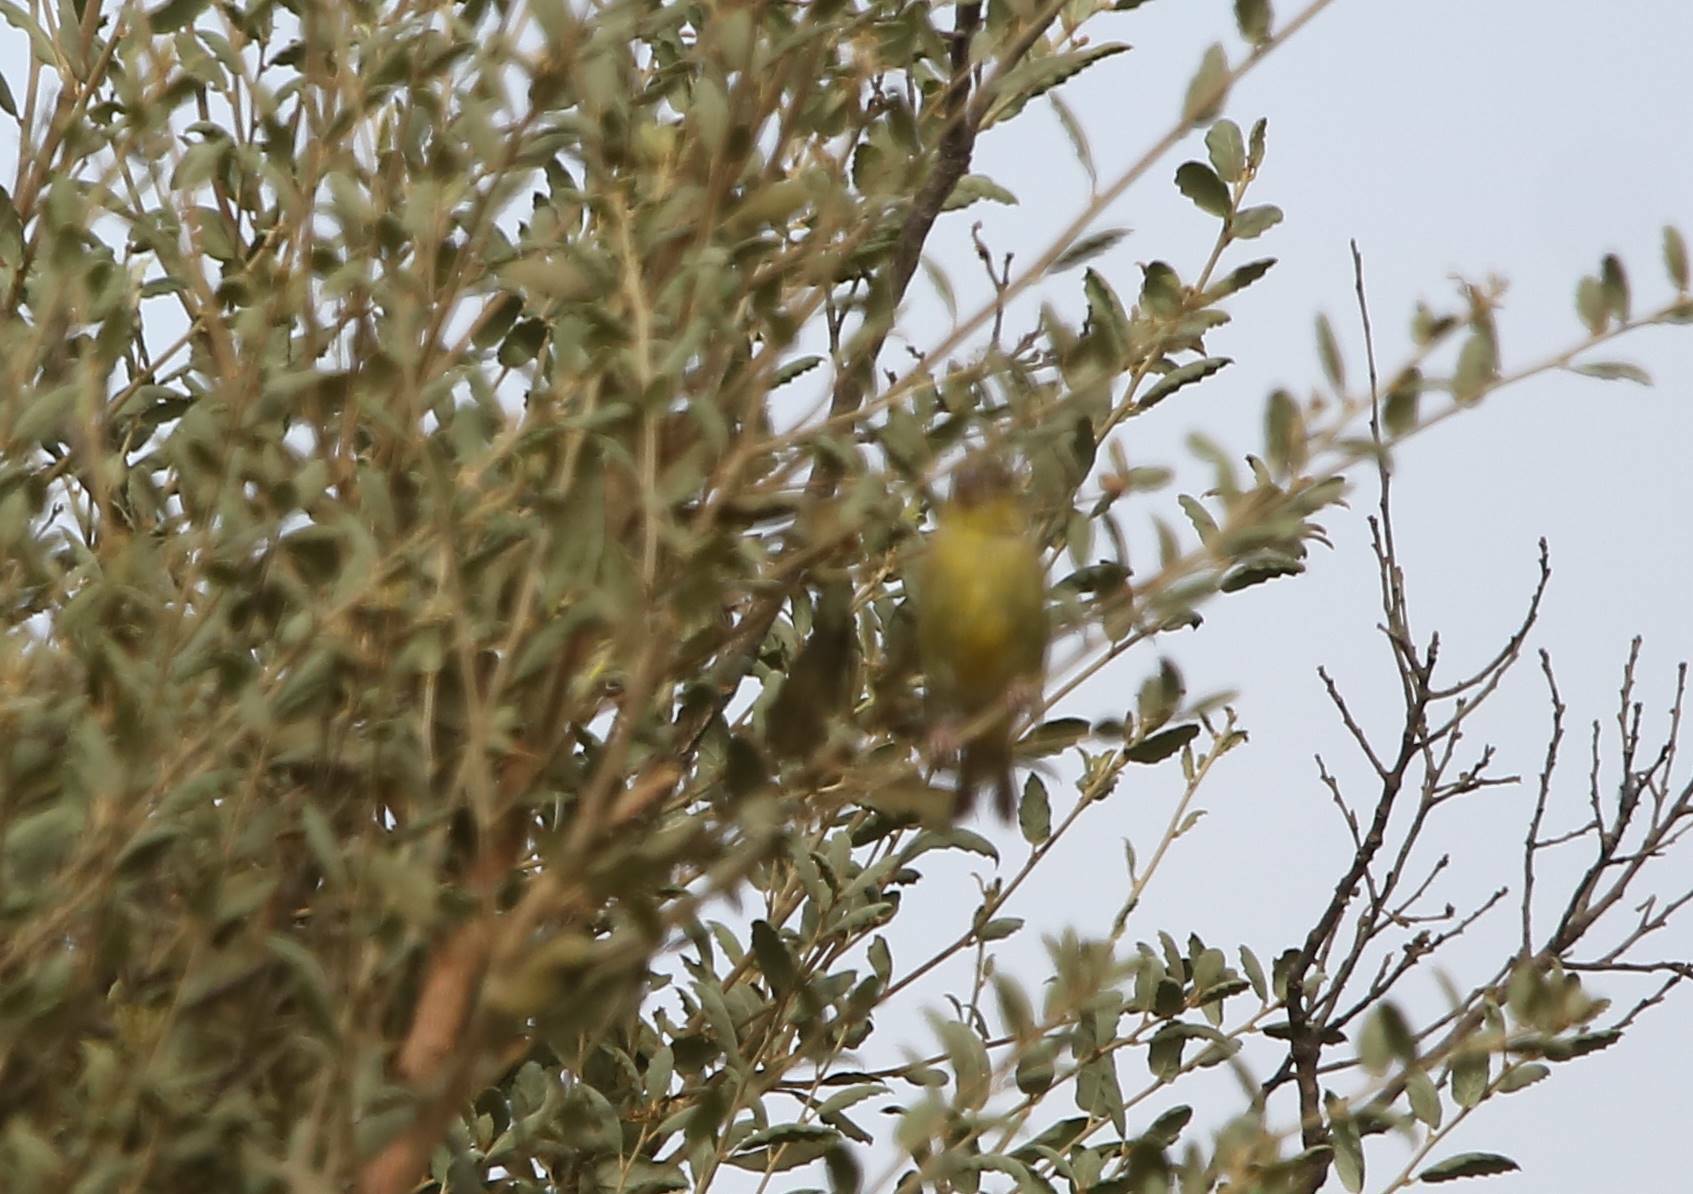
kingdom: Animalia
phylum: Chordata
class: Aves
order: Passeriformes
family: Fringillidae
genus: Serinus
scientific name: Serinus serinus
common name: European serin
